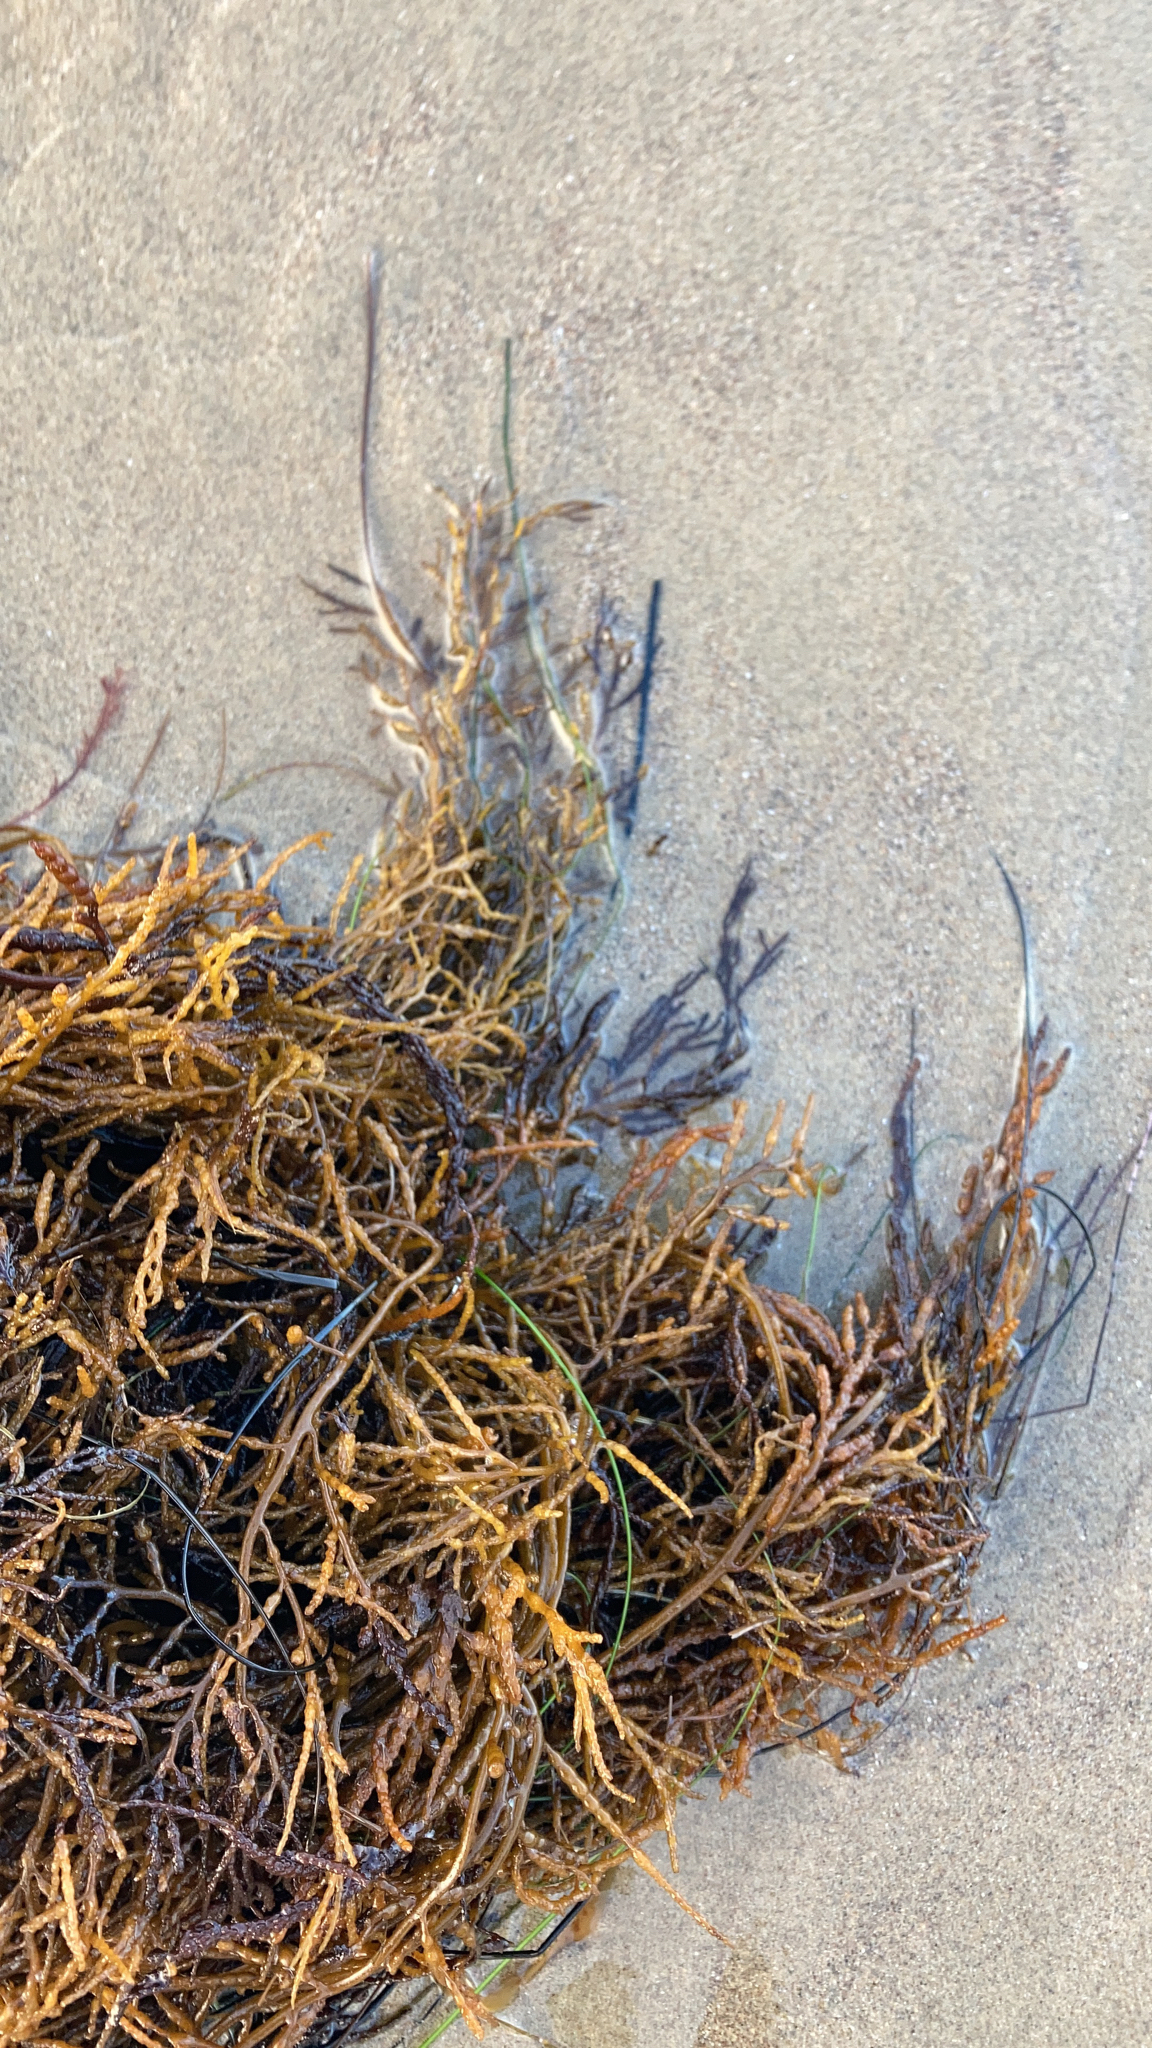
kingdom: Chromista
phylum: Ochrophyta
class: Phaeophyceae
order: Fucales
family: Sargassaceae
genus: Stephanocystis
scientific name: Stephanocystis
